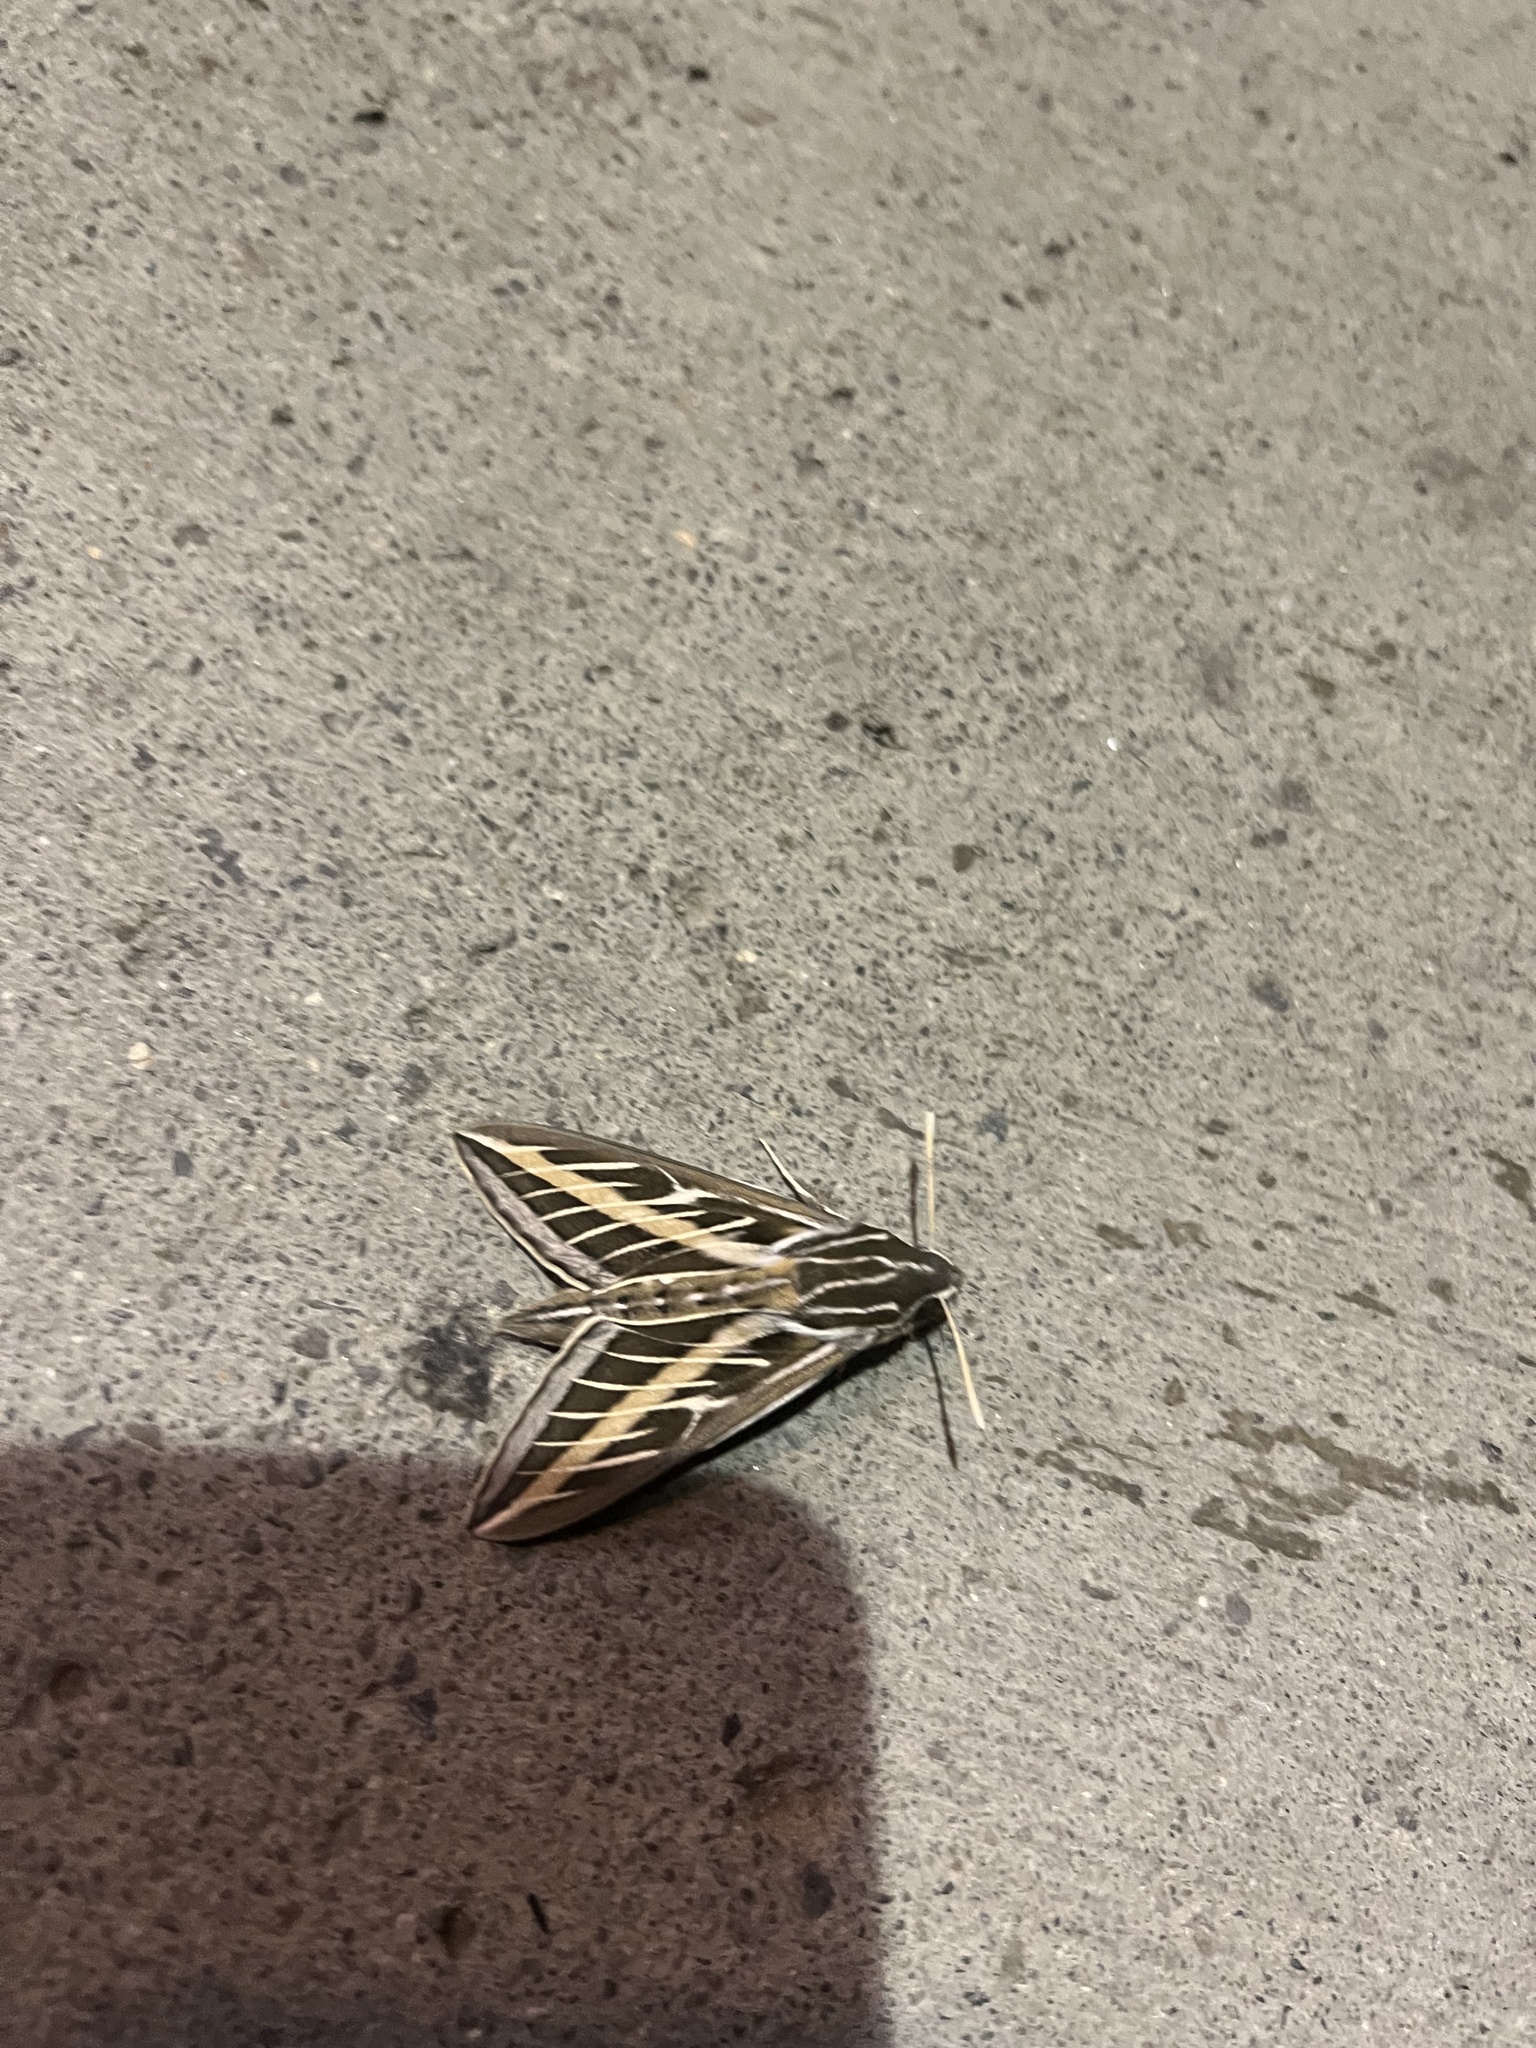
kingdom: Animalia
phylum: Arthropoda
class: Insecta
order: Lepidoptera
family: Sphingidae
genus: Hyles
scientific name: Hyles lineata
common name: White-lined sphinx
